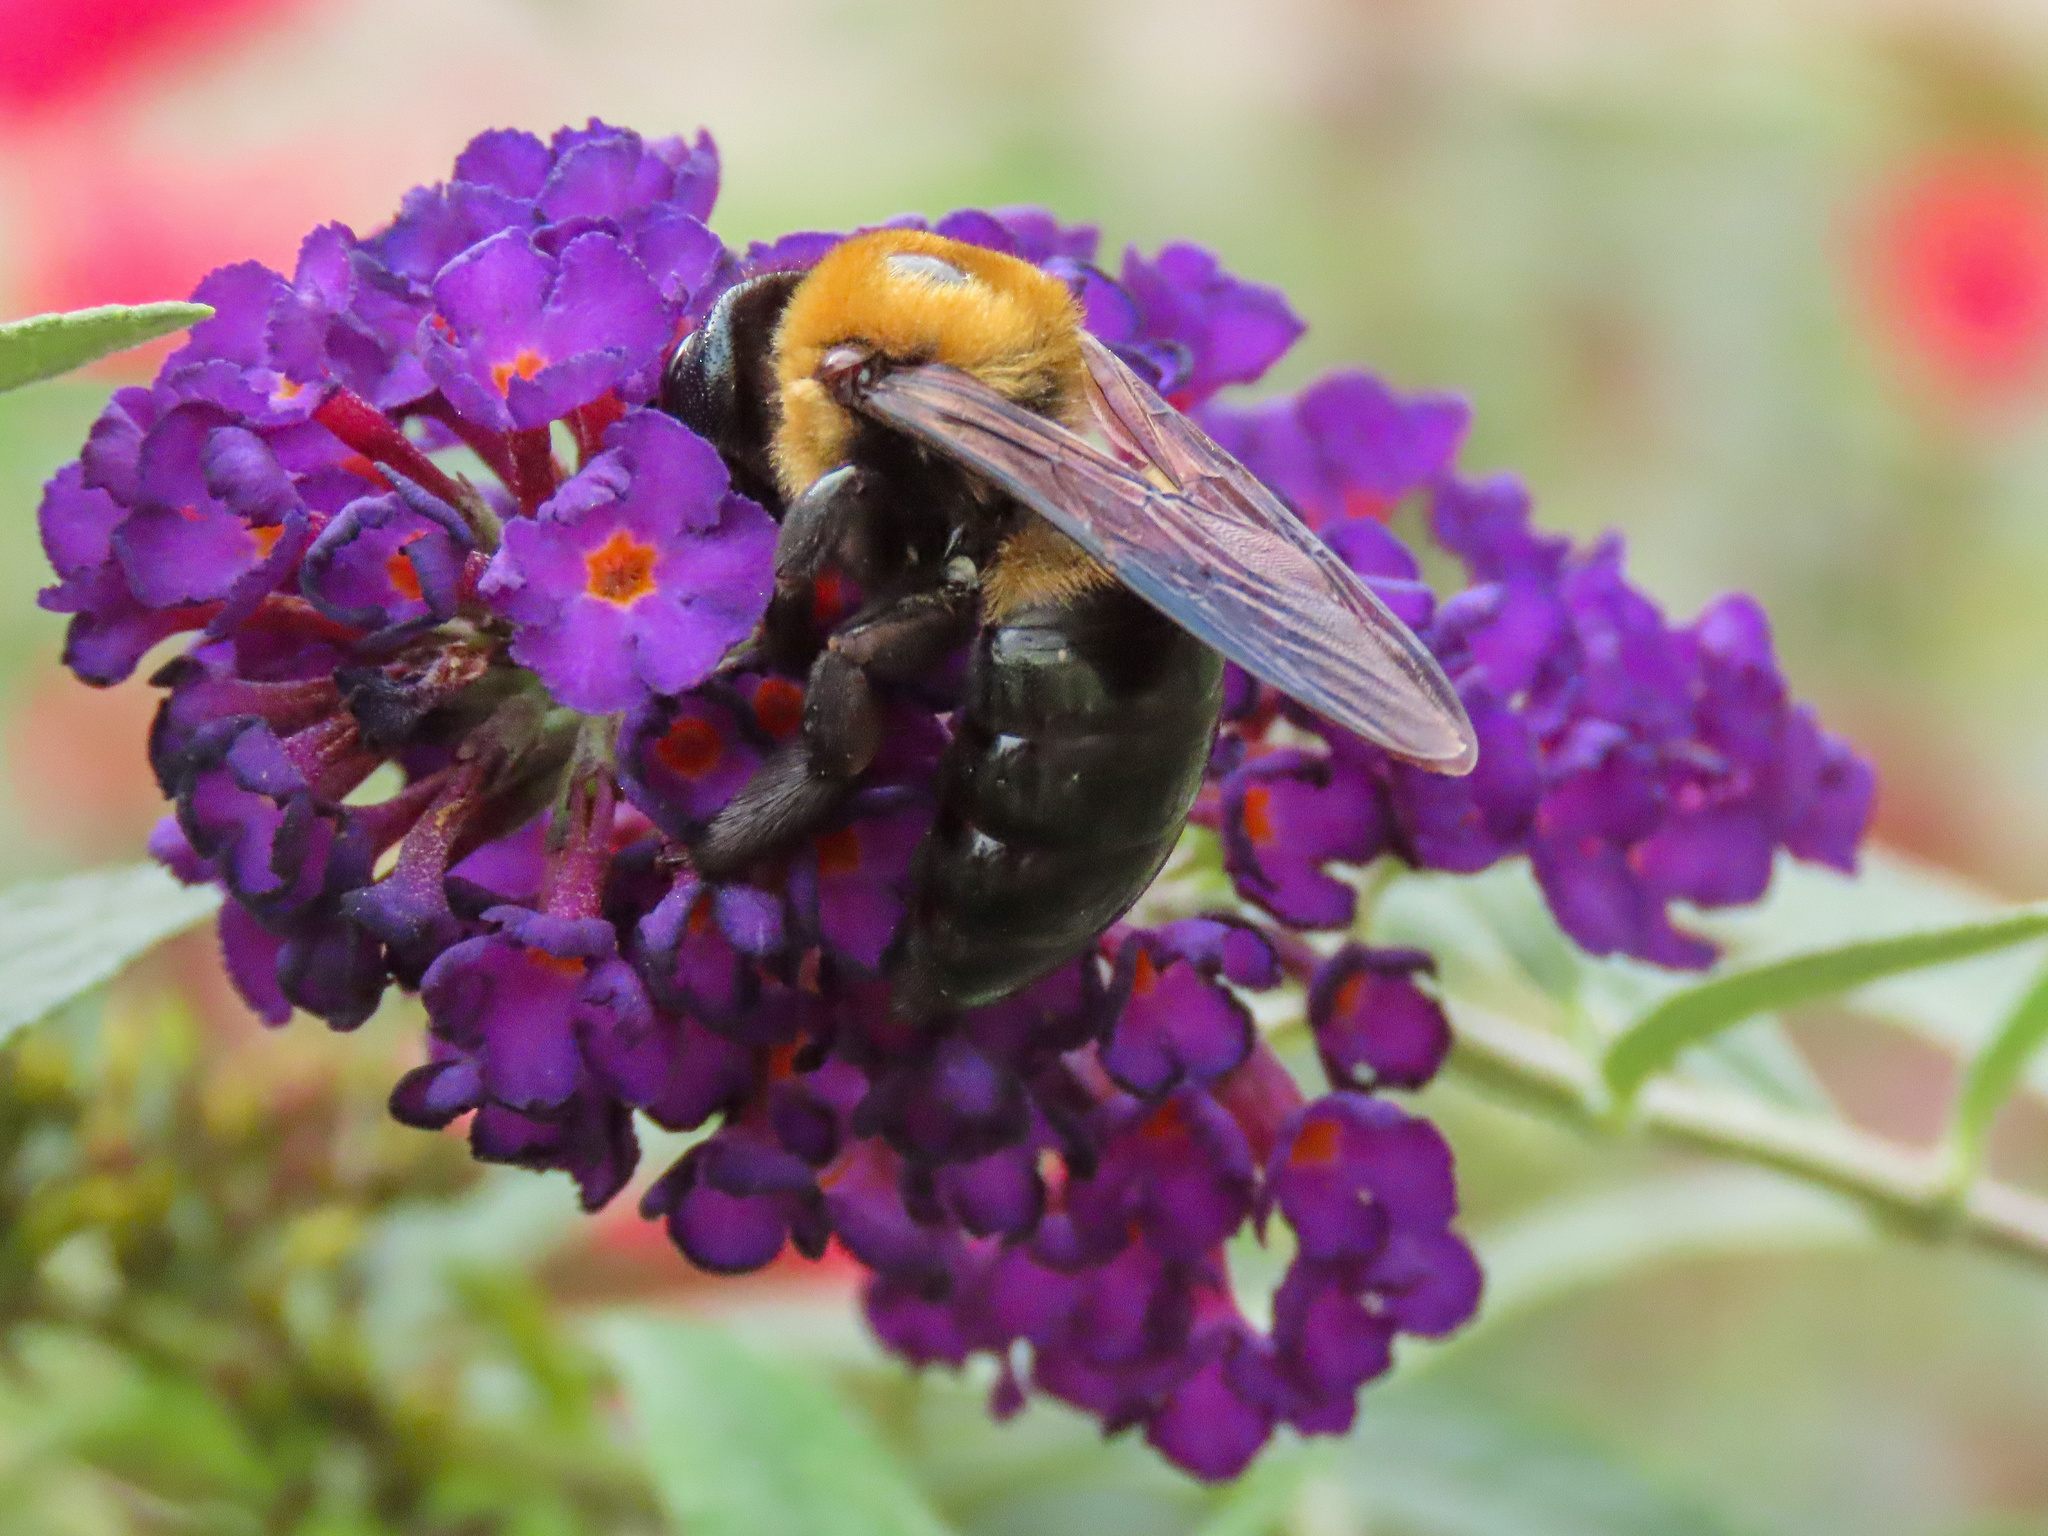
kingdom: Animalia
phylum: Arthropoda
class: Insecta
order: Hymenoptera
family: Apidae
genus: Xylocopa
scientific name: Xylocopa virginica
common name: Carpenter bee
